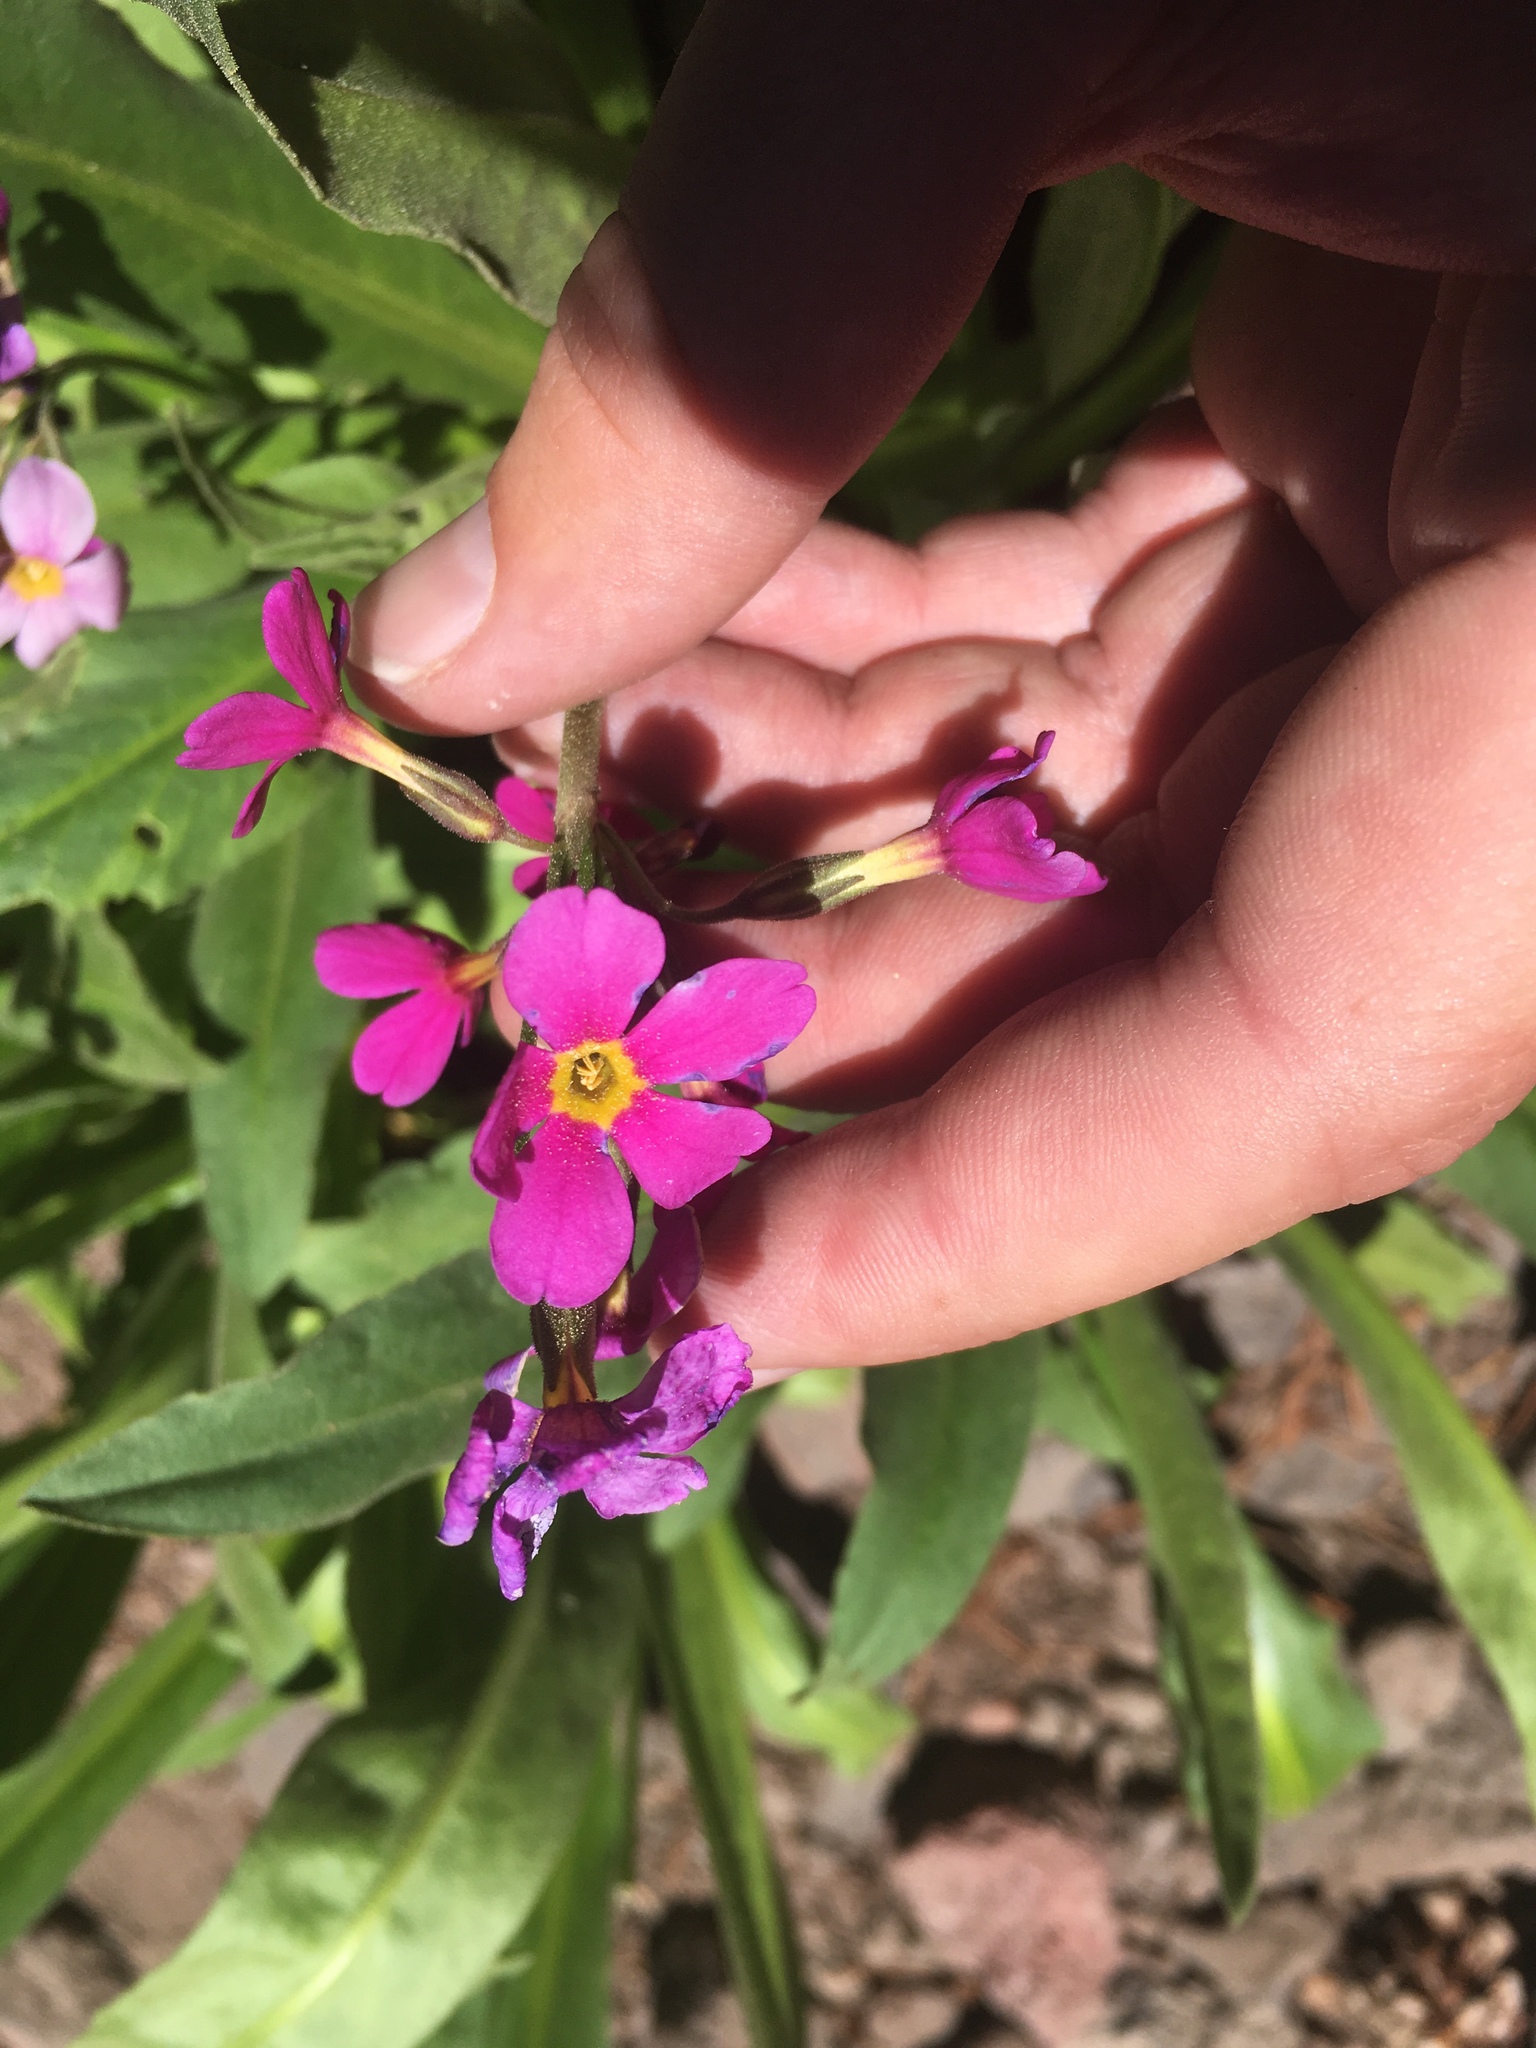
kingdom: Plantae
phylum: Tracheophyta
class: Magnoliopsida
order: Ericales
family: Primulaceae
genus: Primula
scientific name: Primula parryi
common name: Parry's primrose
